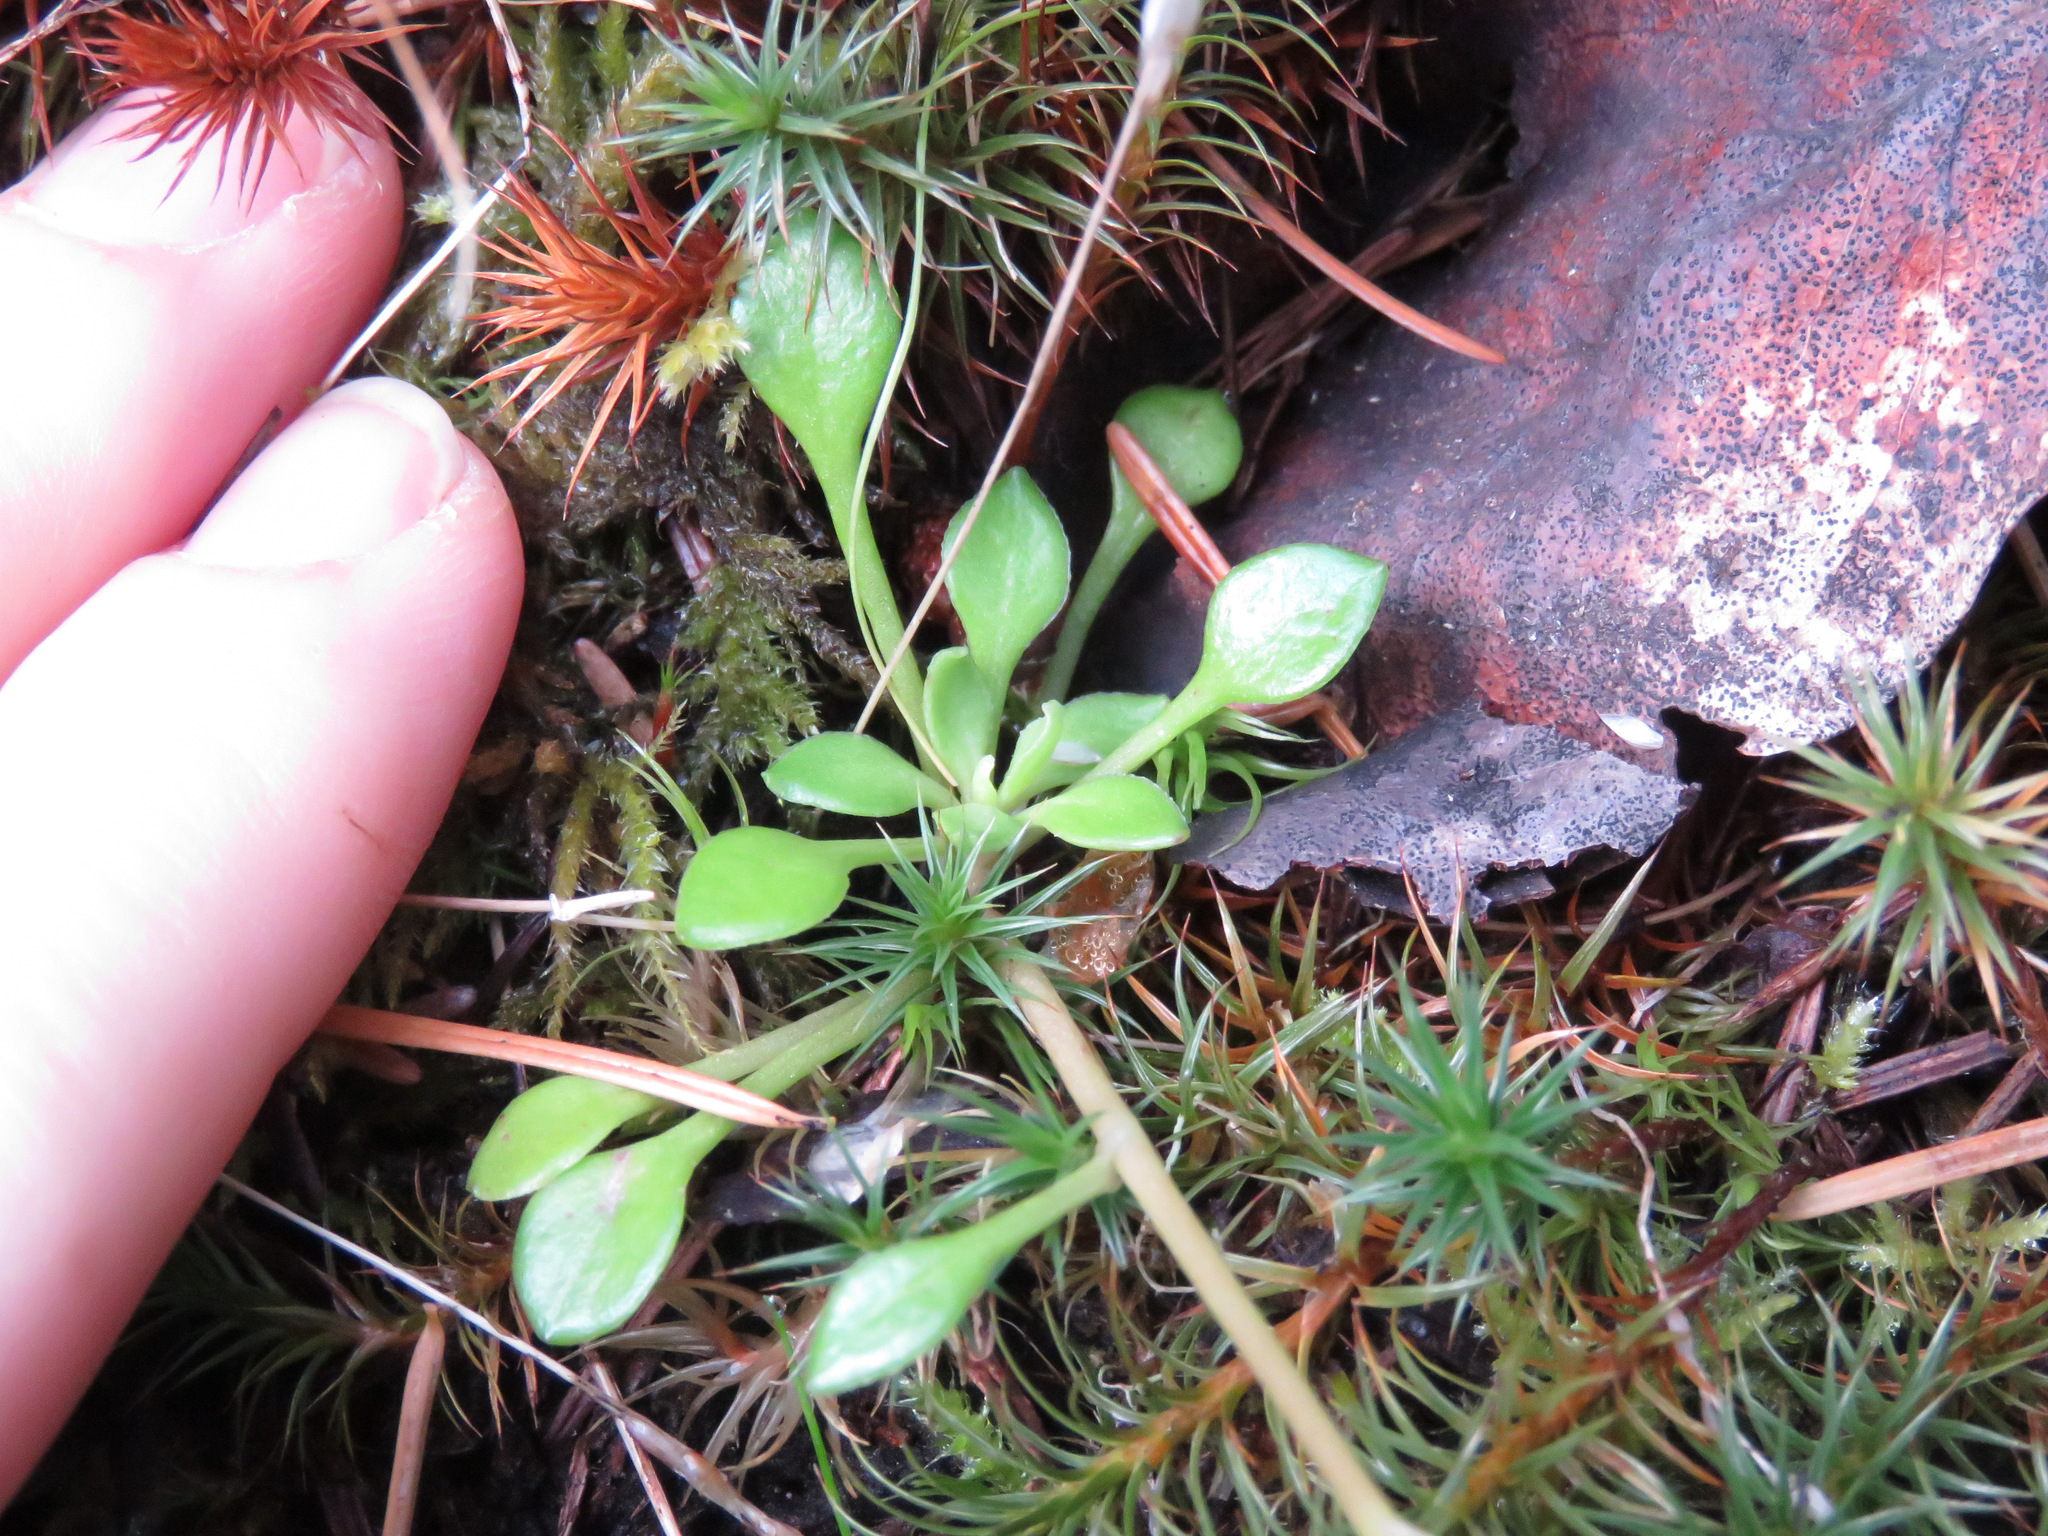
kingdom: Plantae
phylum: Tracheophyta
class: Magnoliopsida
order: Caryophyllales
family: Montiaceae
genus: Montia
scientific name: Montia parvifolia
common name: Small-leaved blinks
